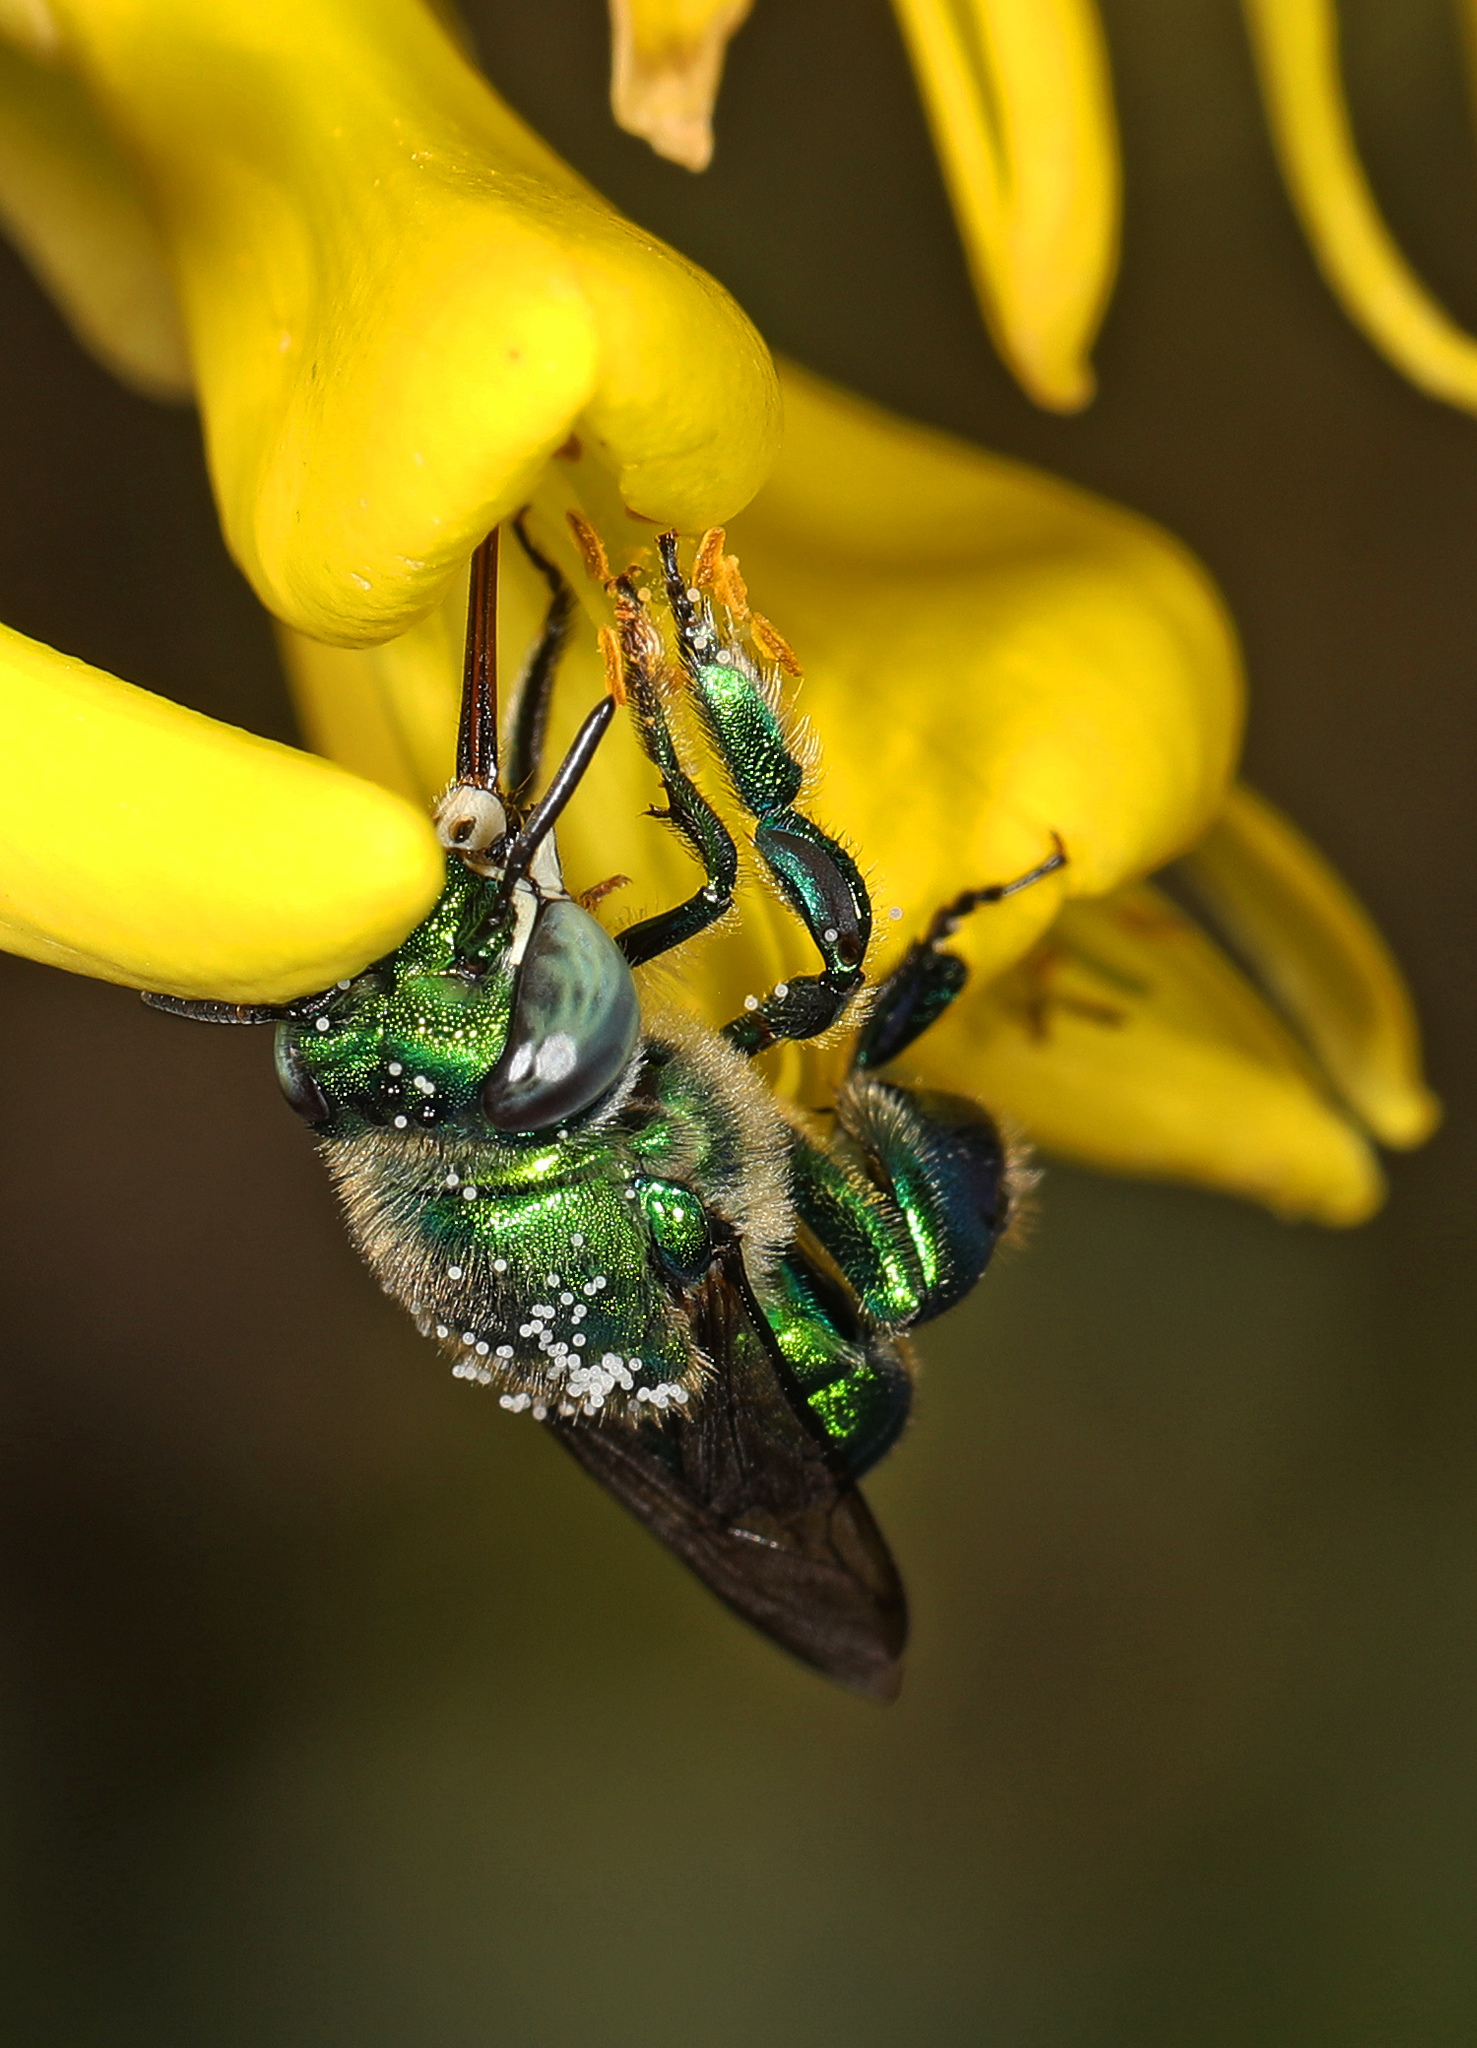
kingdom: Animalia
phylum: Arthropoda
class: Insecta
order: Hymenoptera
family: Apidae
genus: Euglossa
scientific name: Euglossa dilemma
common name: Green orchid bee
